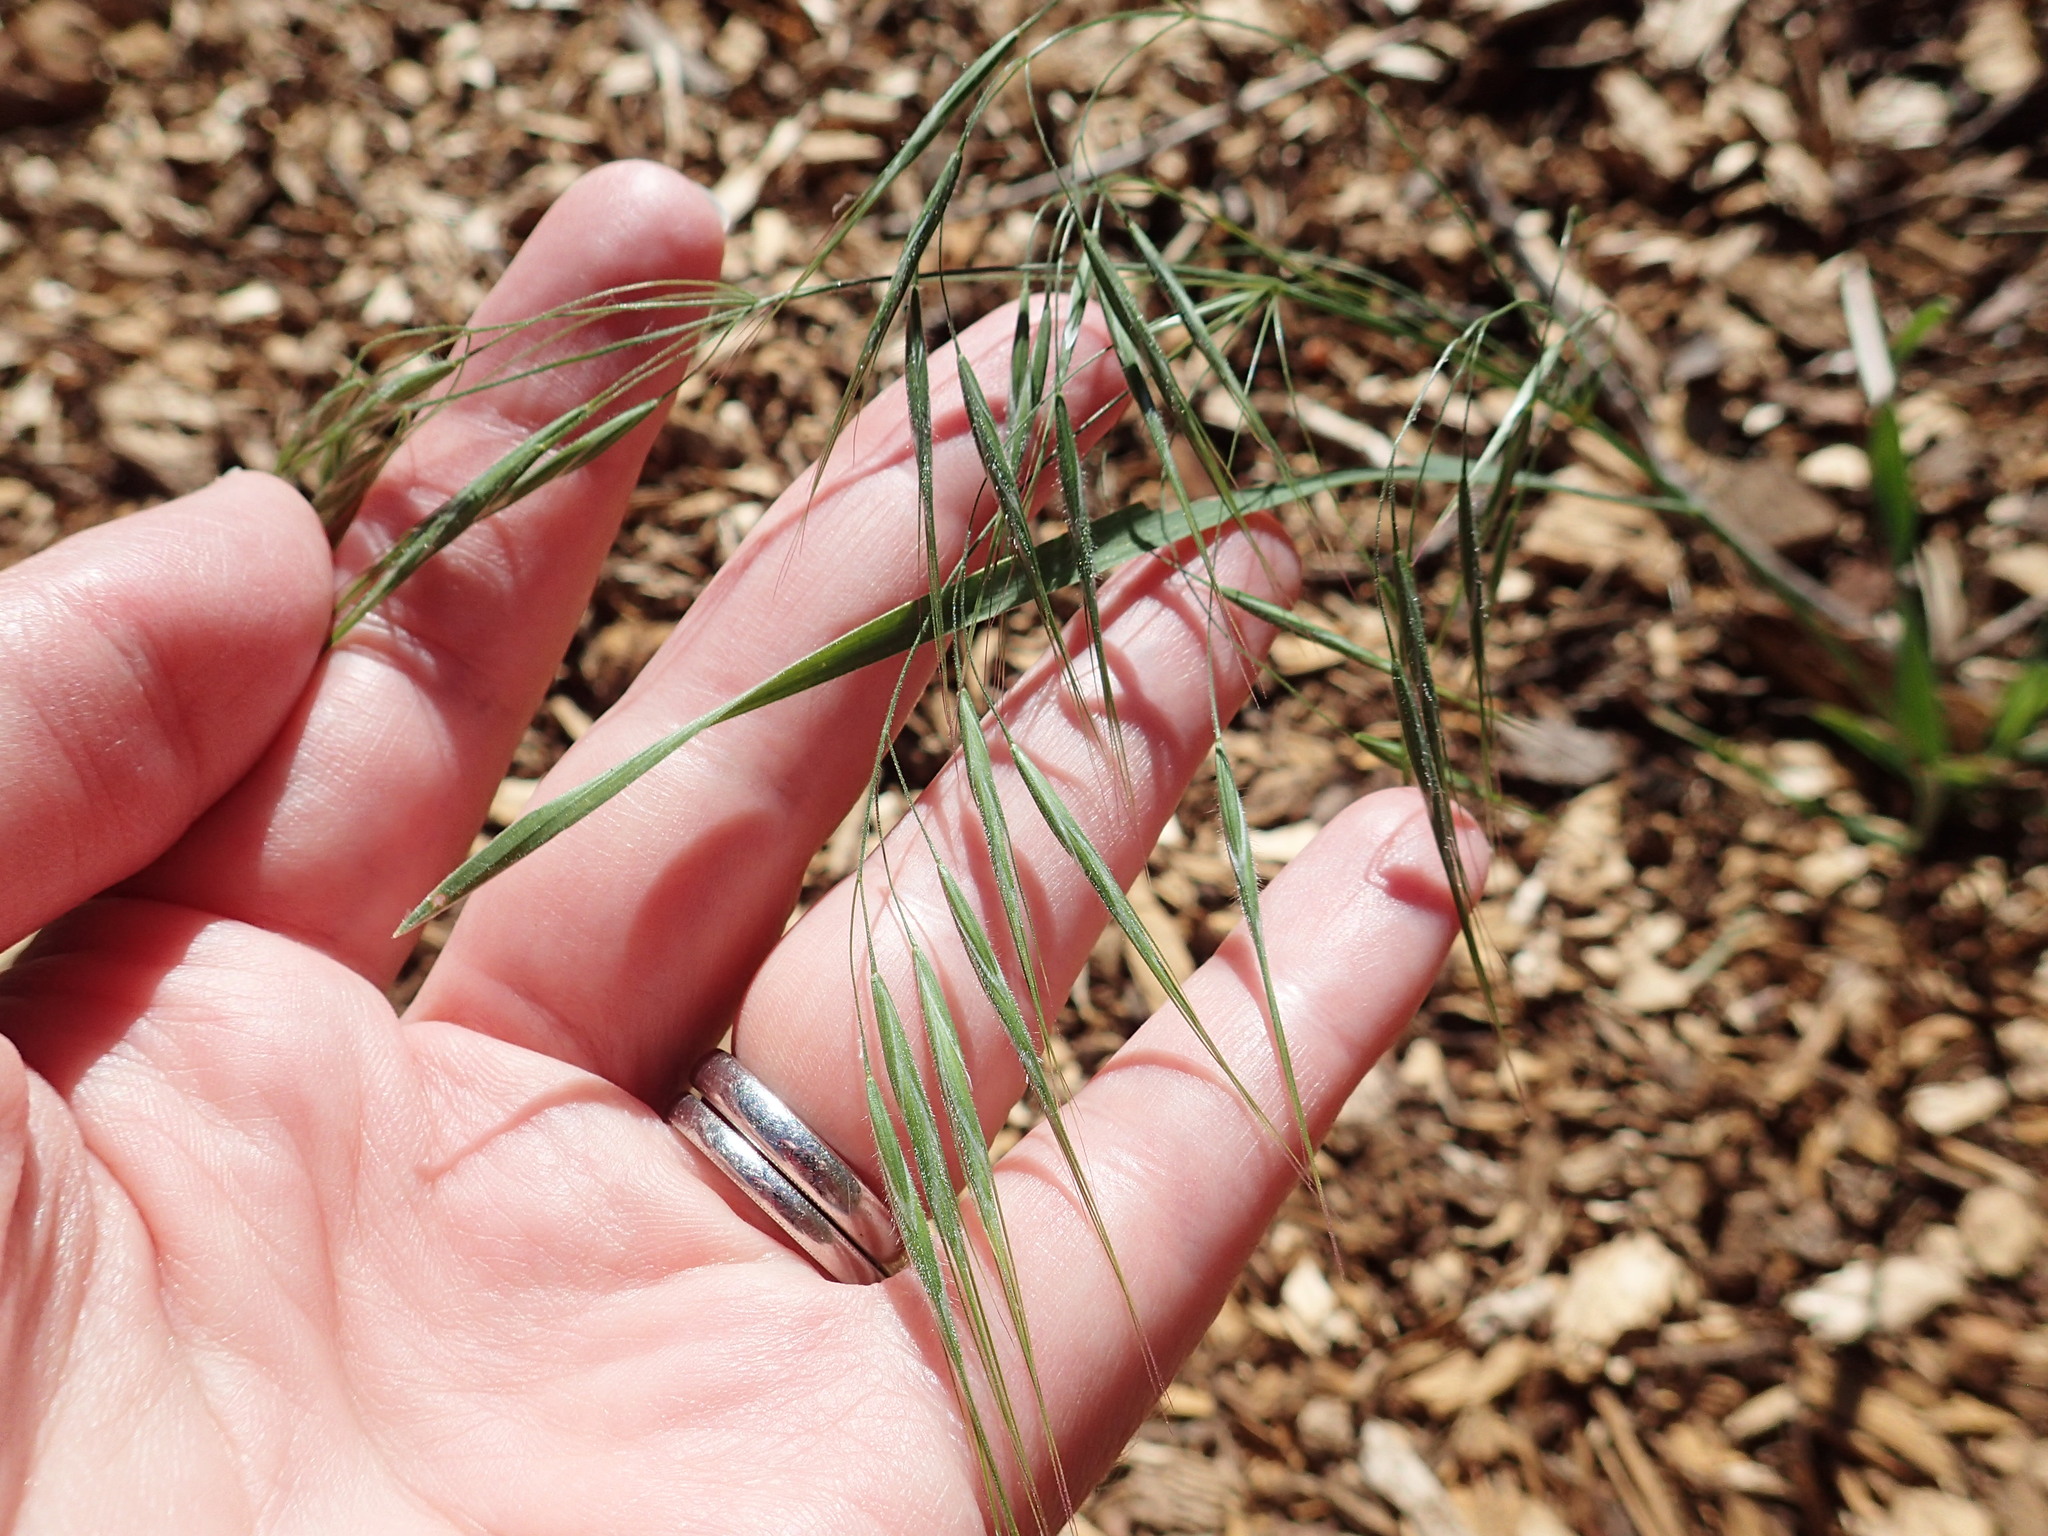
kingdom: Plantae
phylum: Tracheophyta
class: Liliopsida
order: Poales
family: Poaceae
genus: Bromus
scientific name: Bromus tectorum
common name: Cheatgrass
